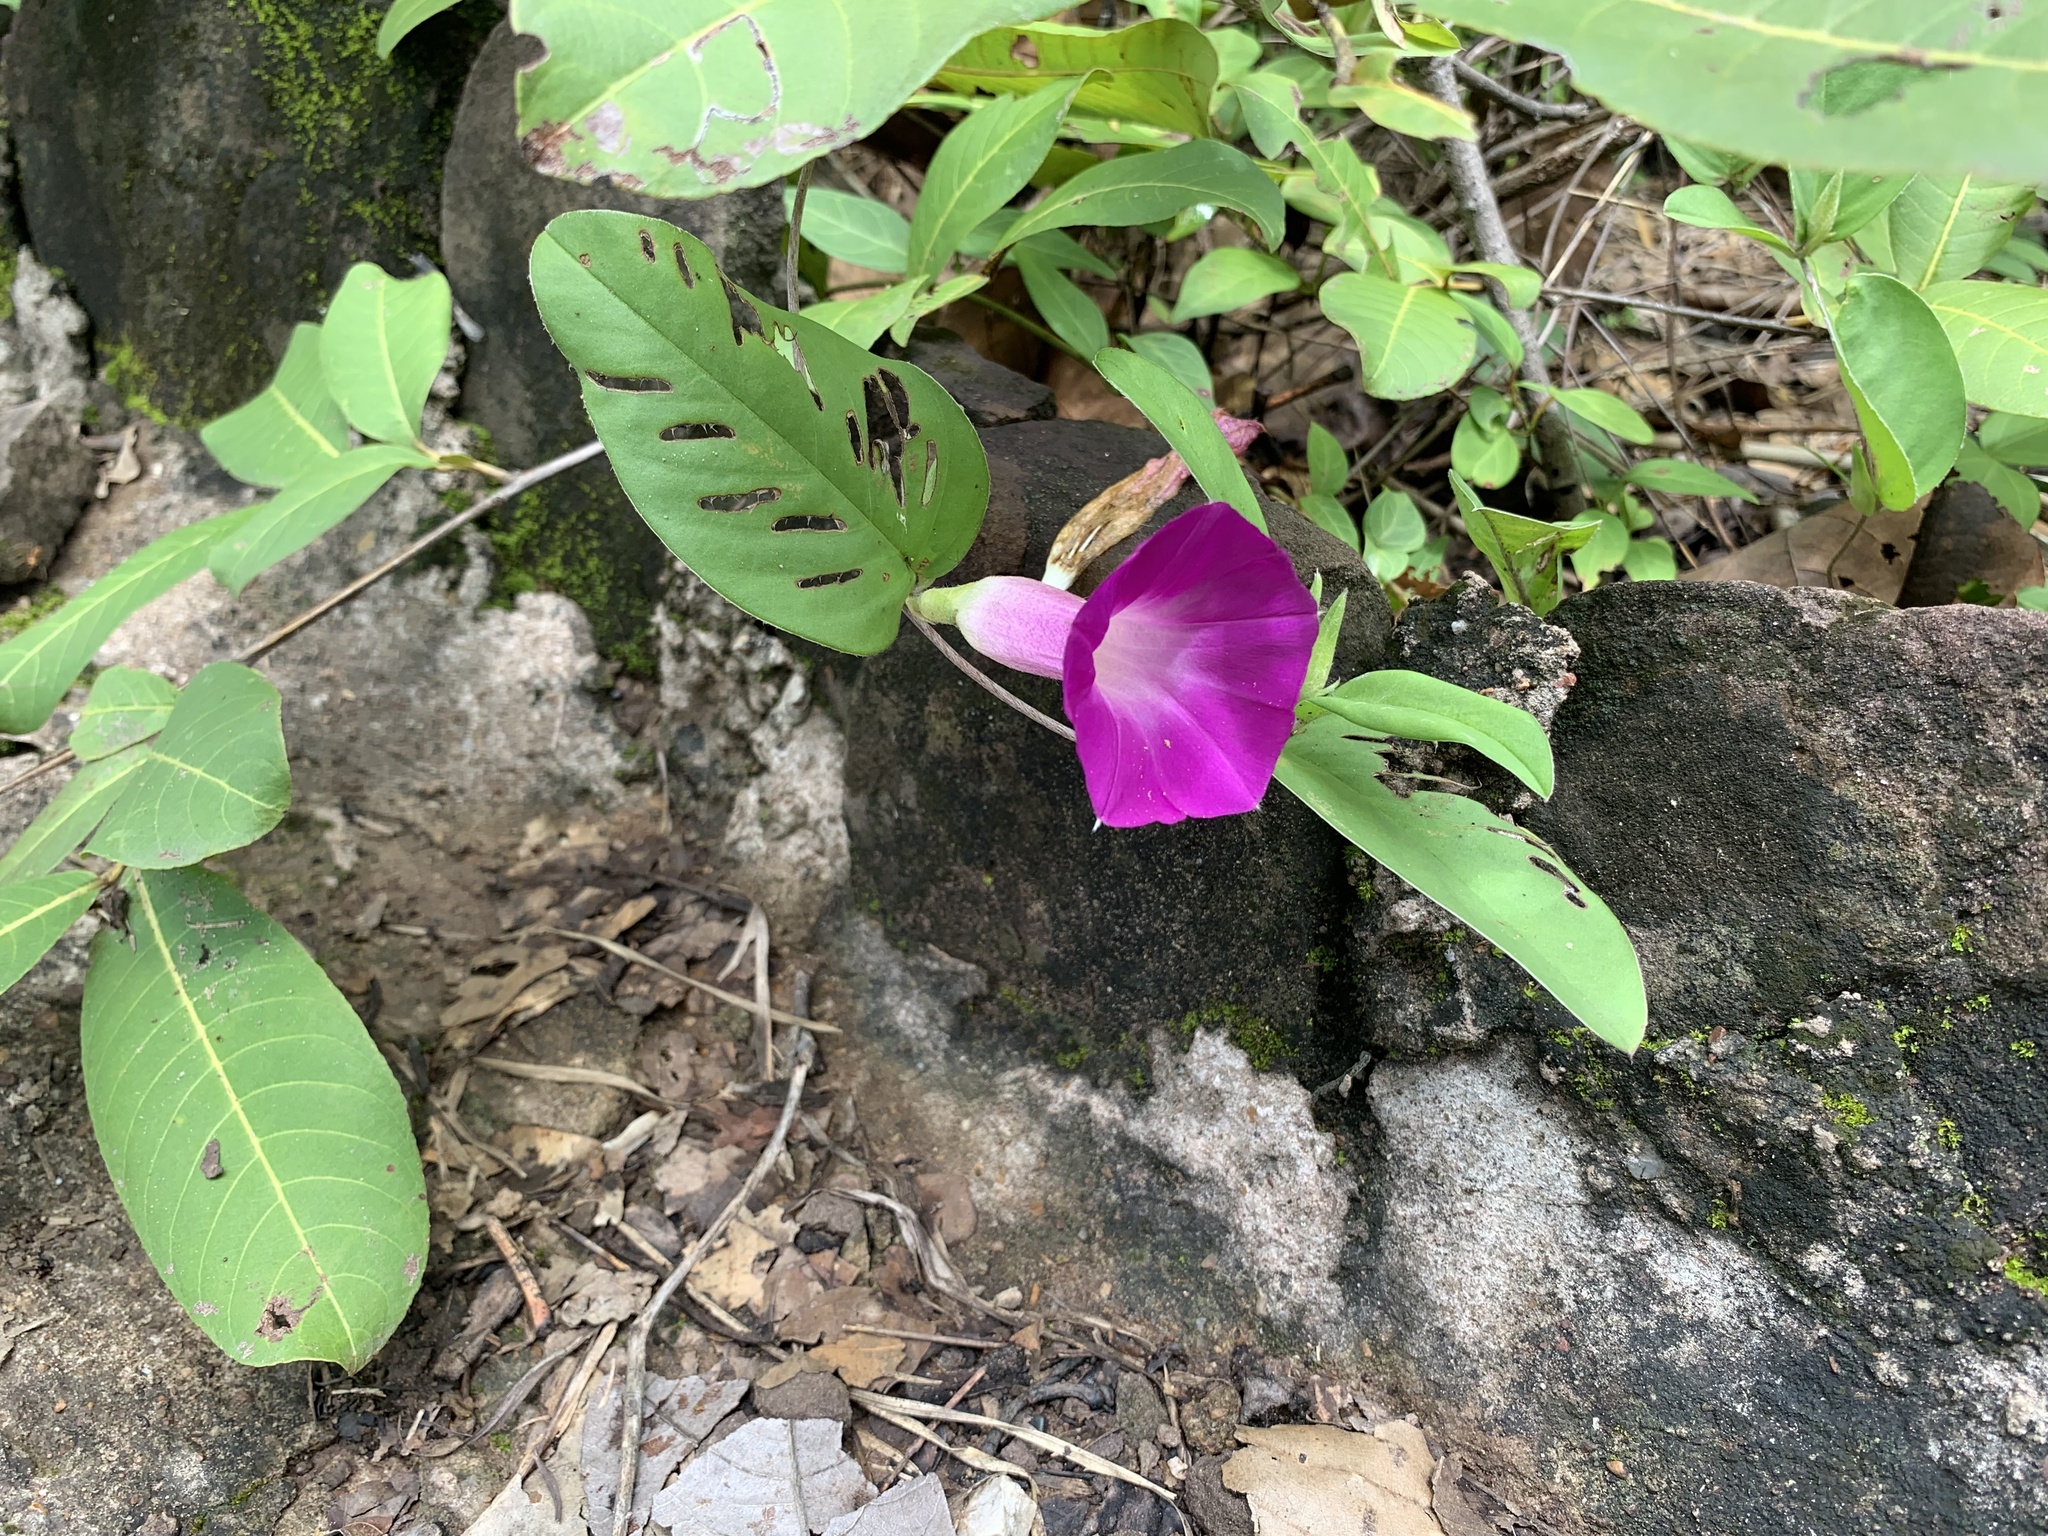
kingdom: Plantae
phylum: Tracheophyta
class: Magnoliopsida
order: Solanales
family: Convolvulaceae
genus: Argyreia
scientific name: Argyreia lanceolata
